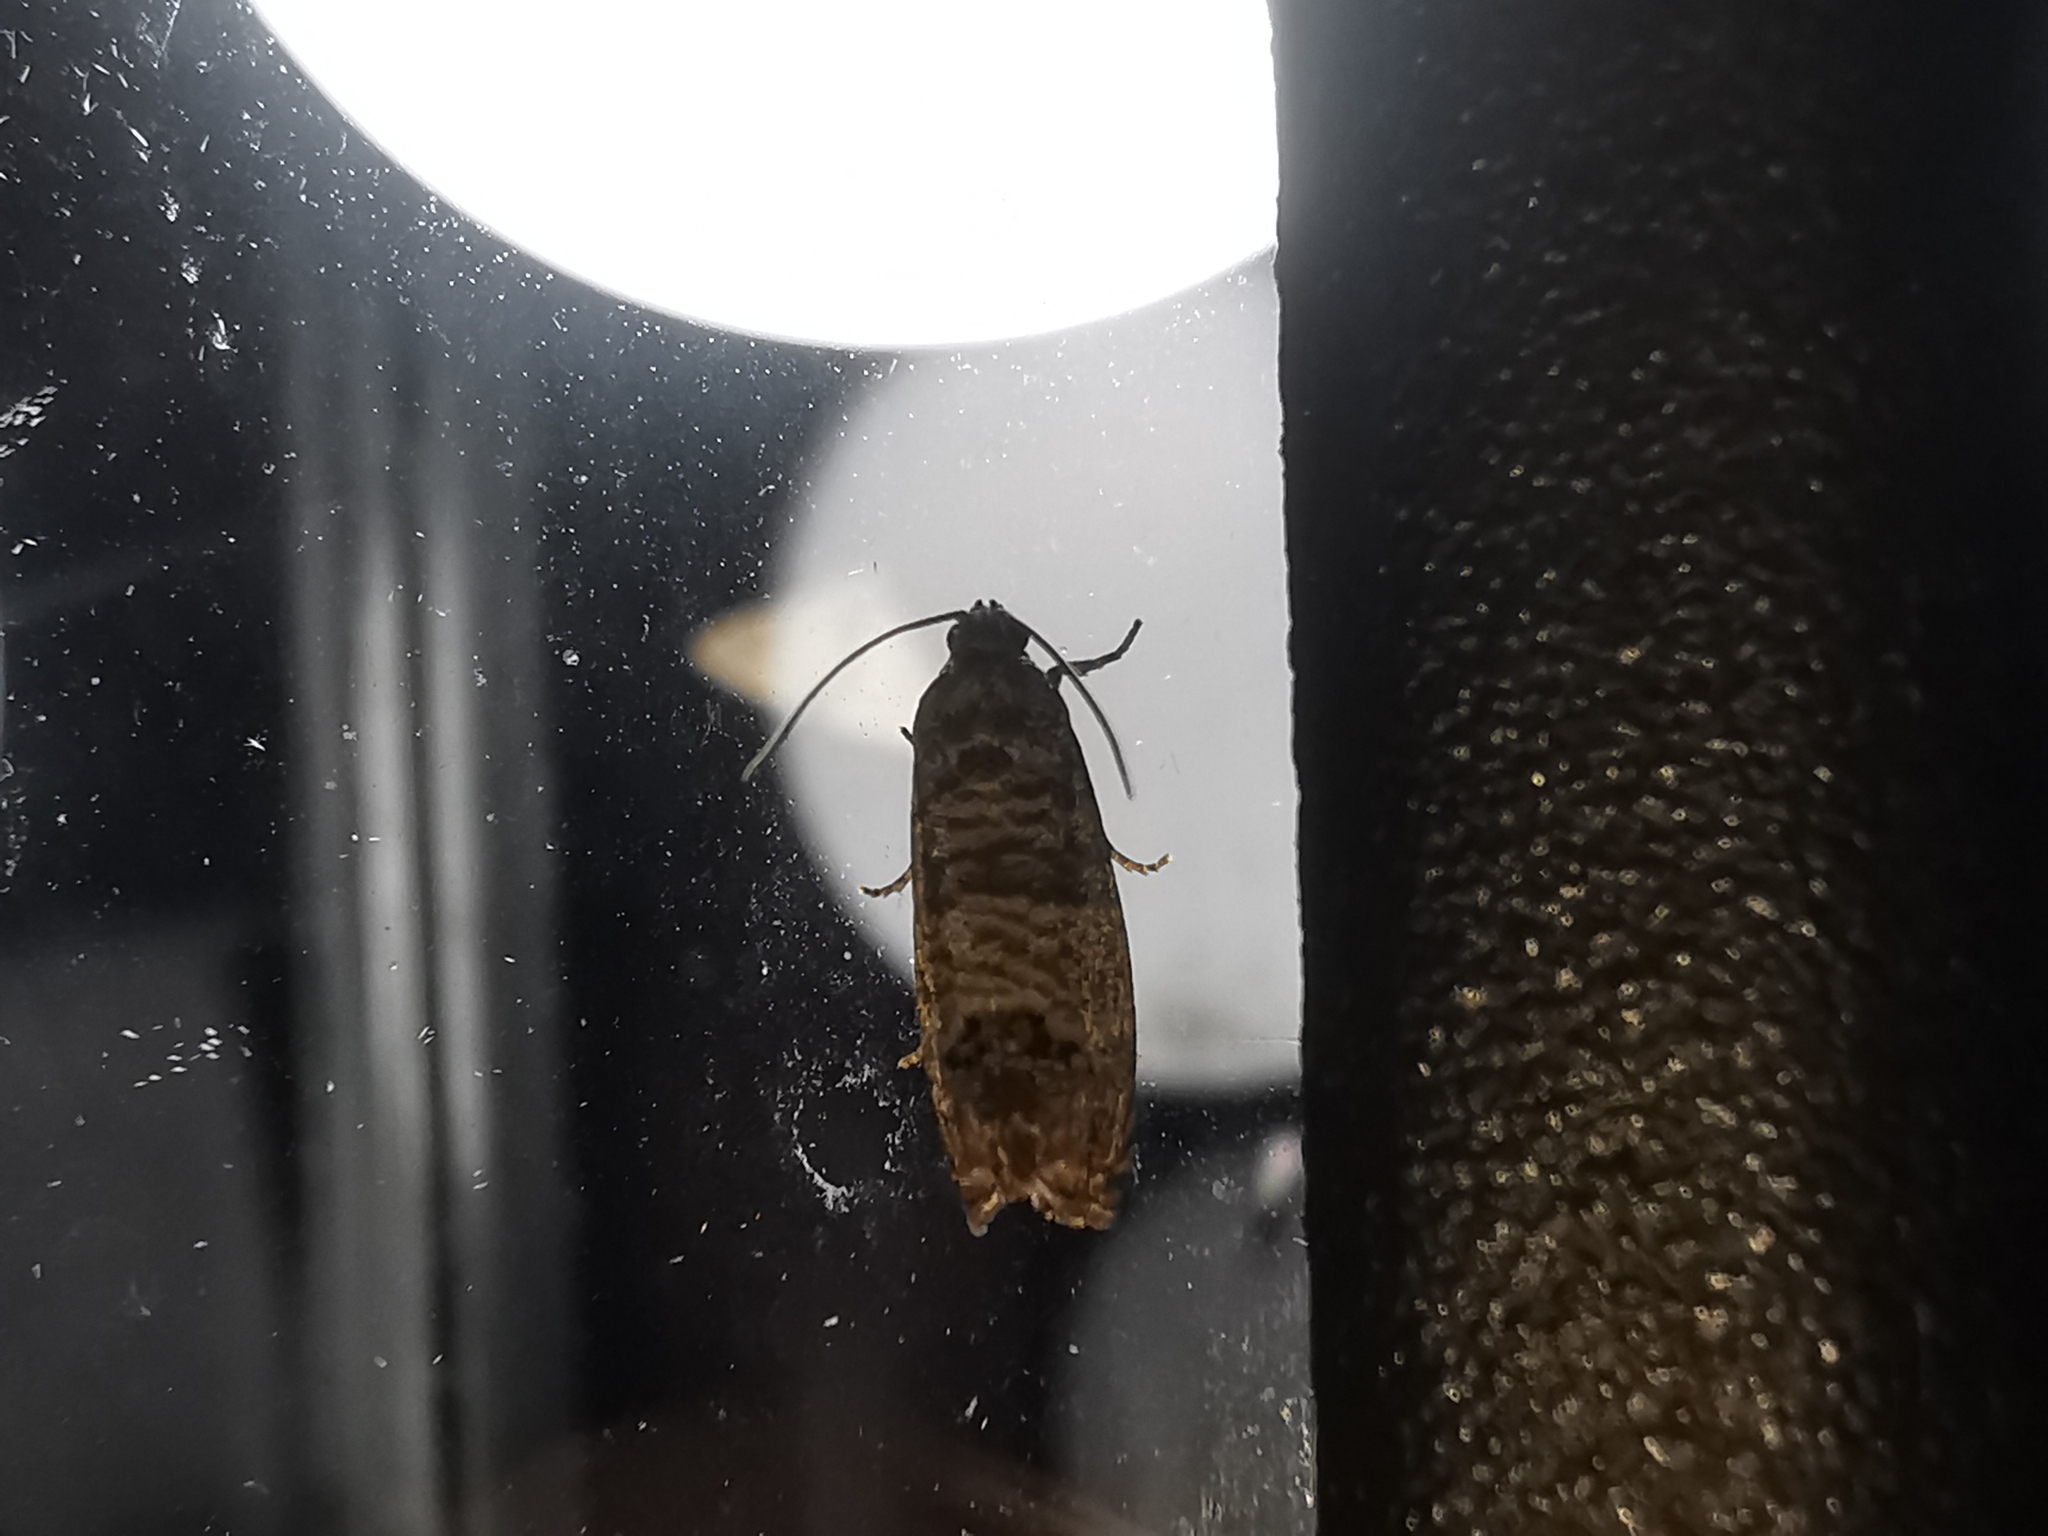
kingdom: Animalia
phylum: Arthropoda
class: Insecta
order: Lepidoptera
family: Tortricidae
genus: Cydia
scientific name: Cydia pomonella
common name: Codling moth
